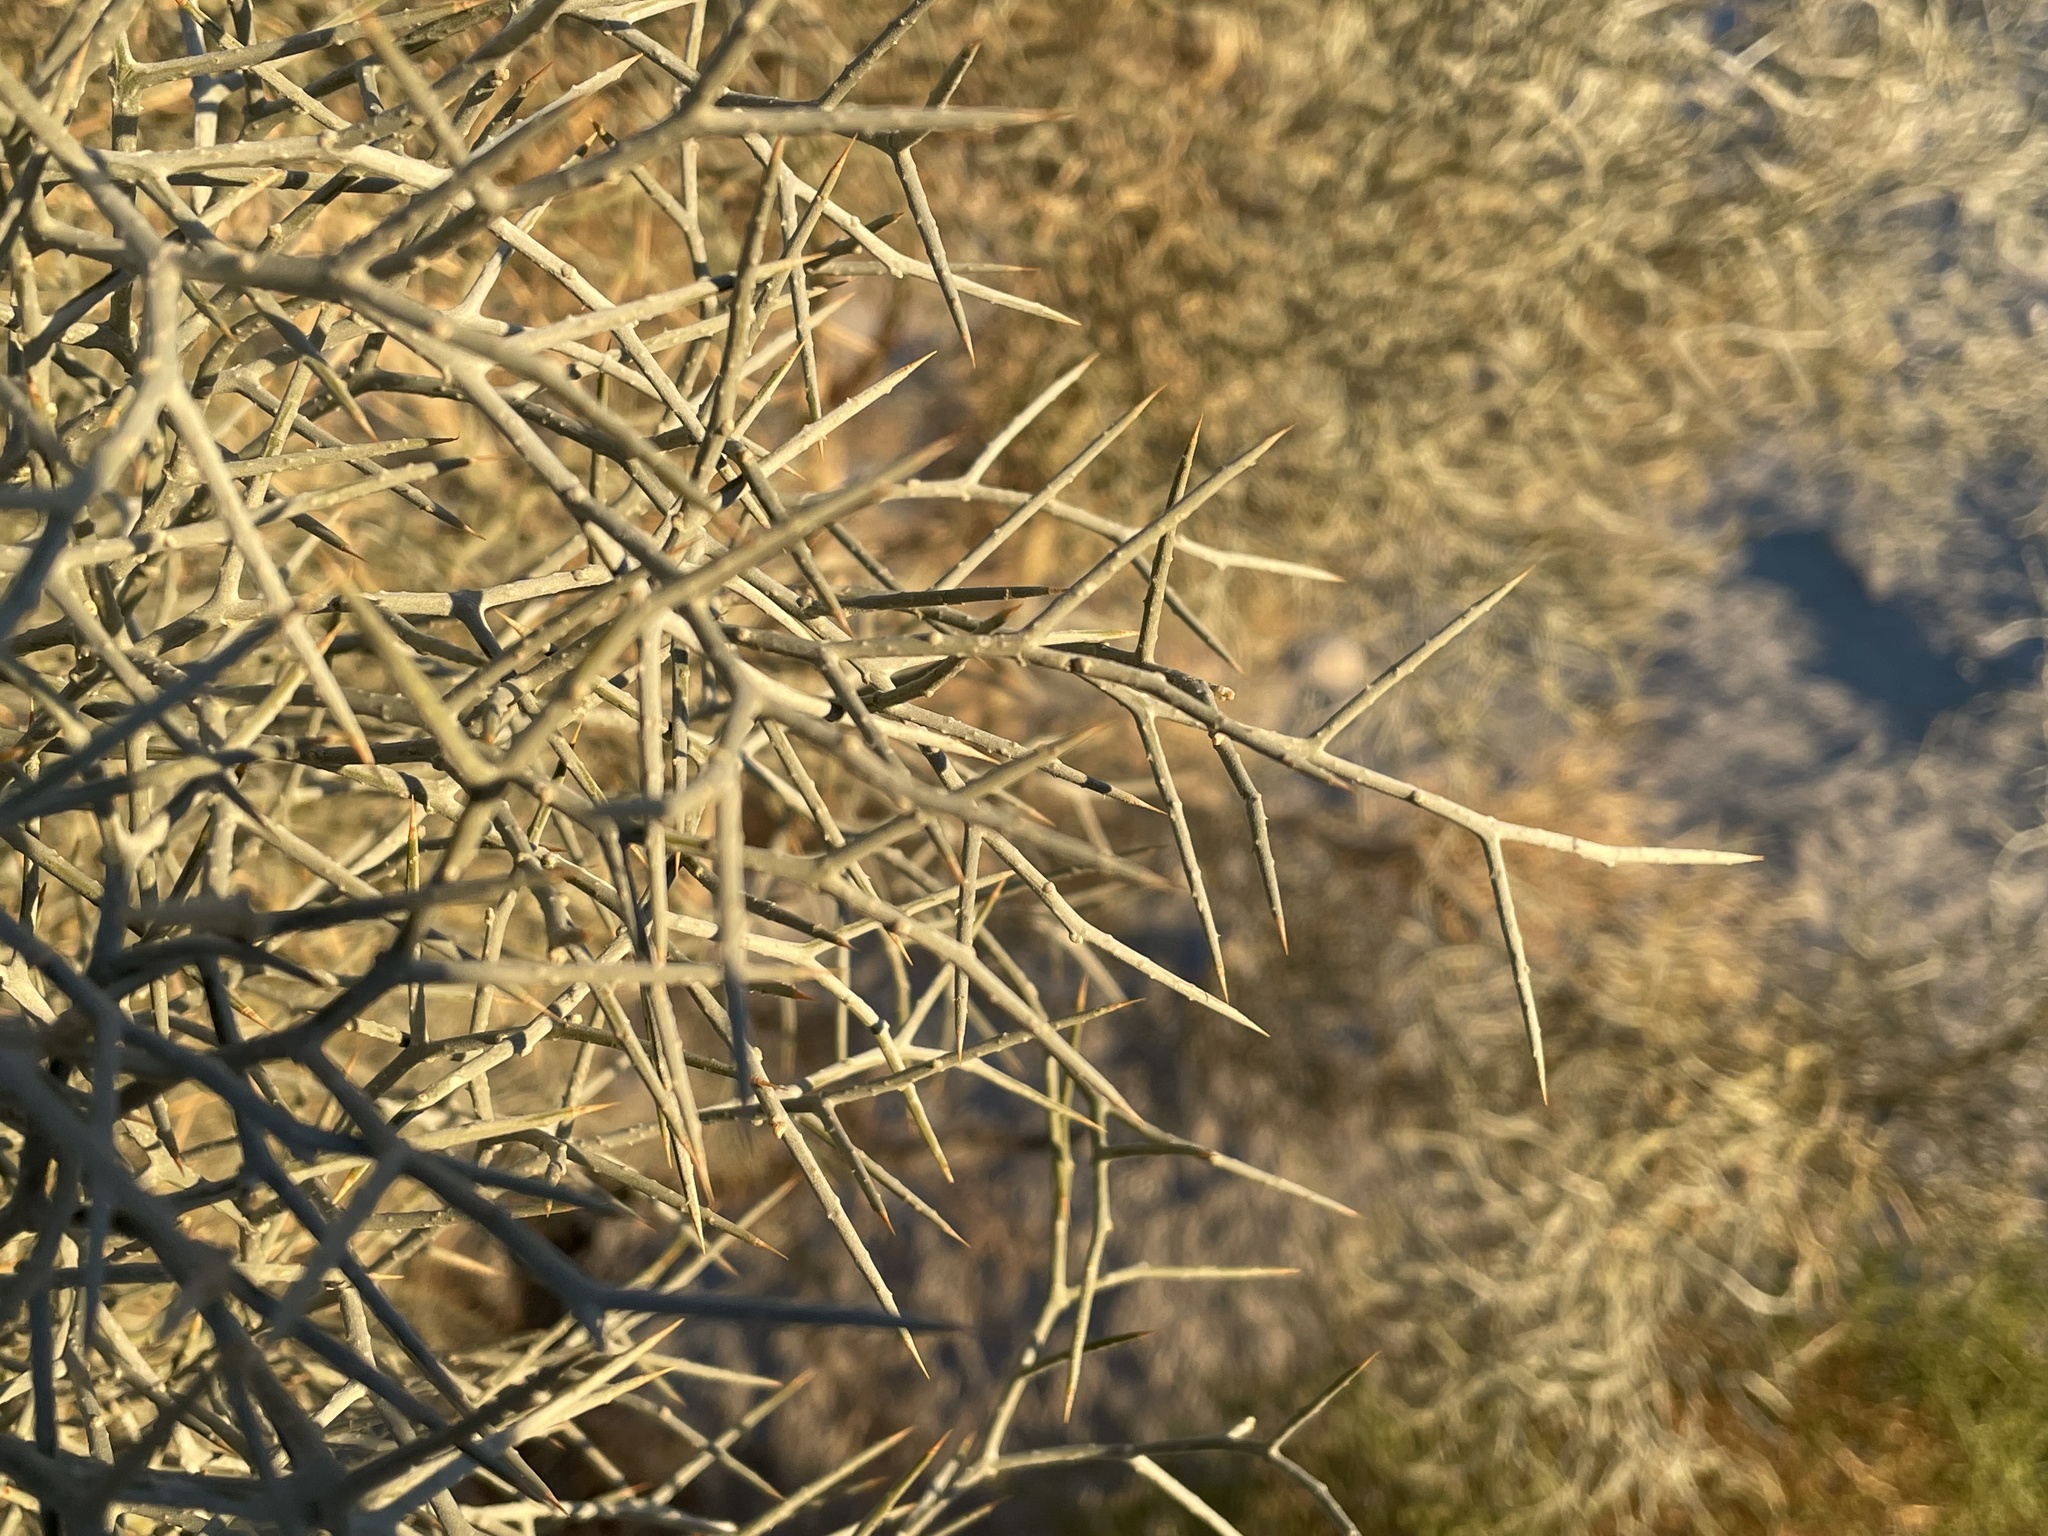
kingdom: Plantae
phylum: Tracheophyta
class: Magnoliopsida
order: Fabales
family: Fabaceae
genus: Psorothamnus
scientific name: Psorothamnus spinosus
